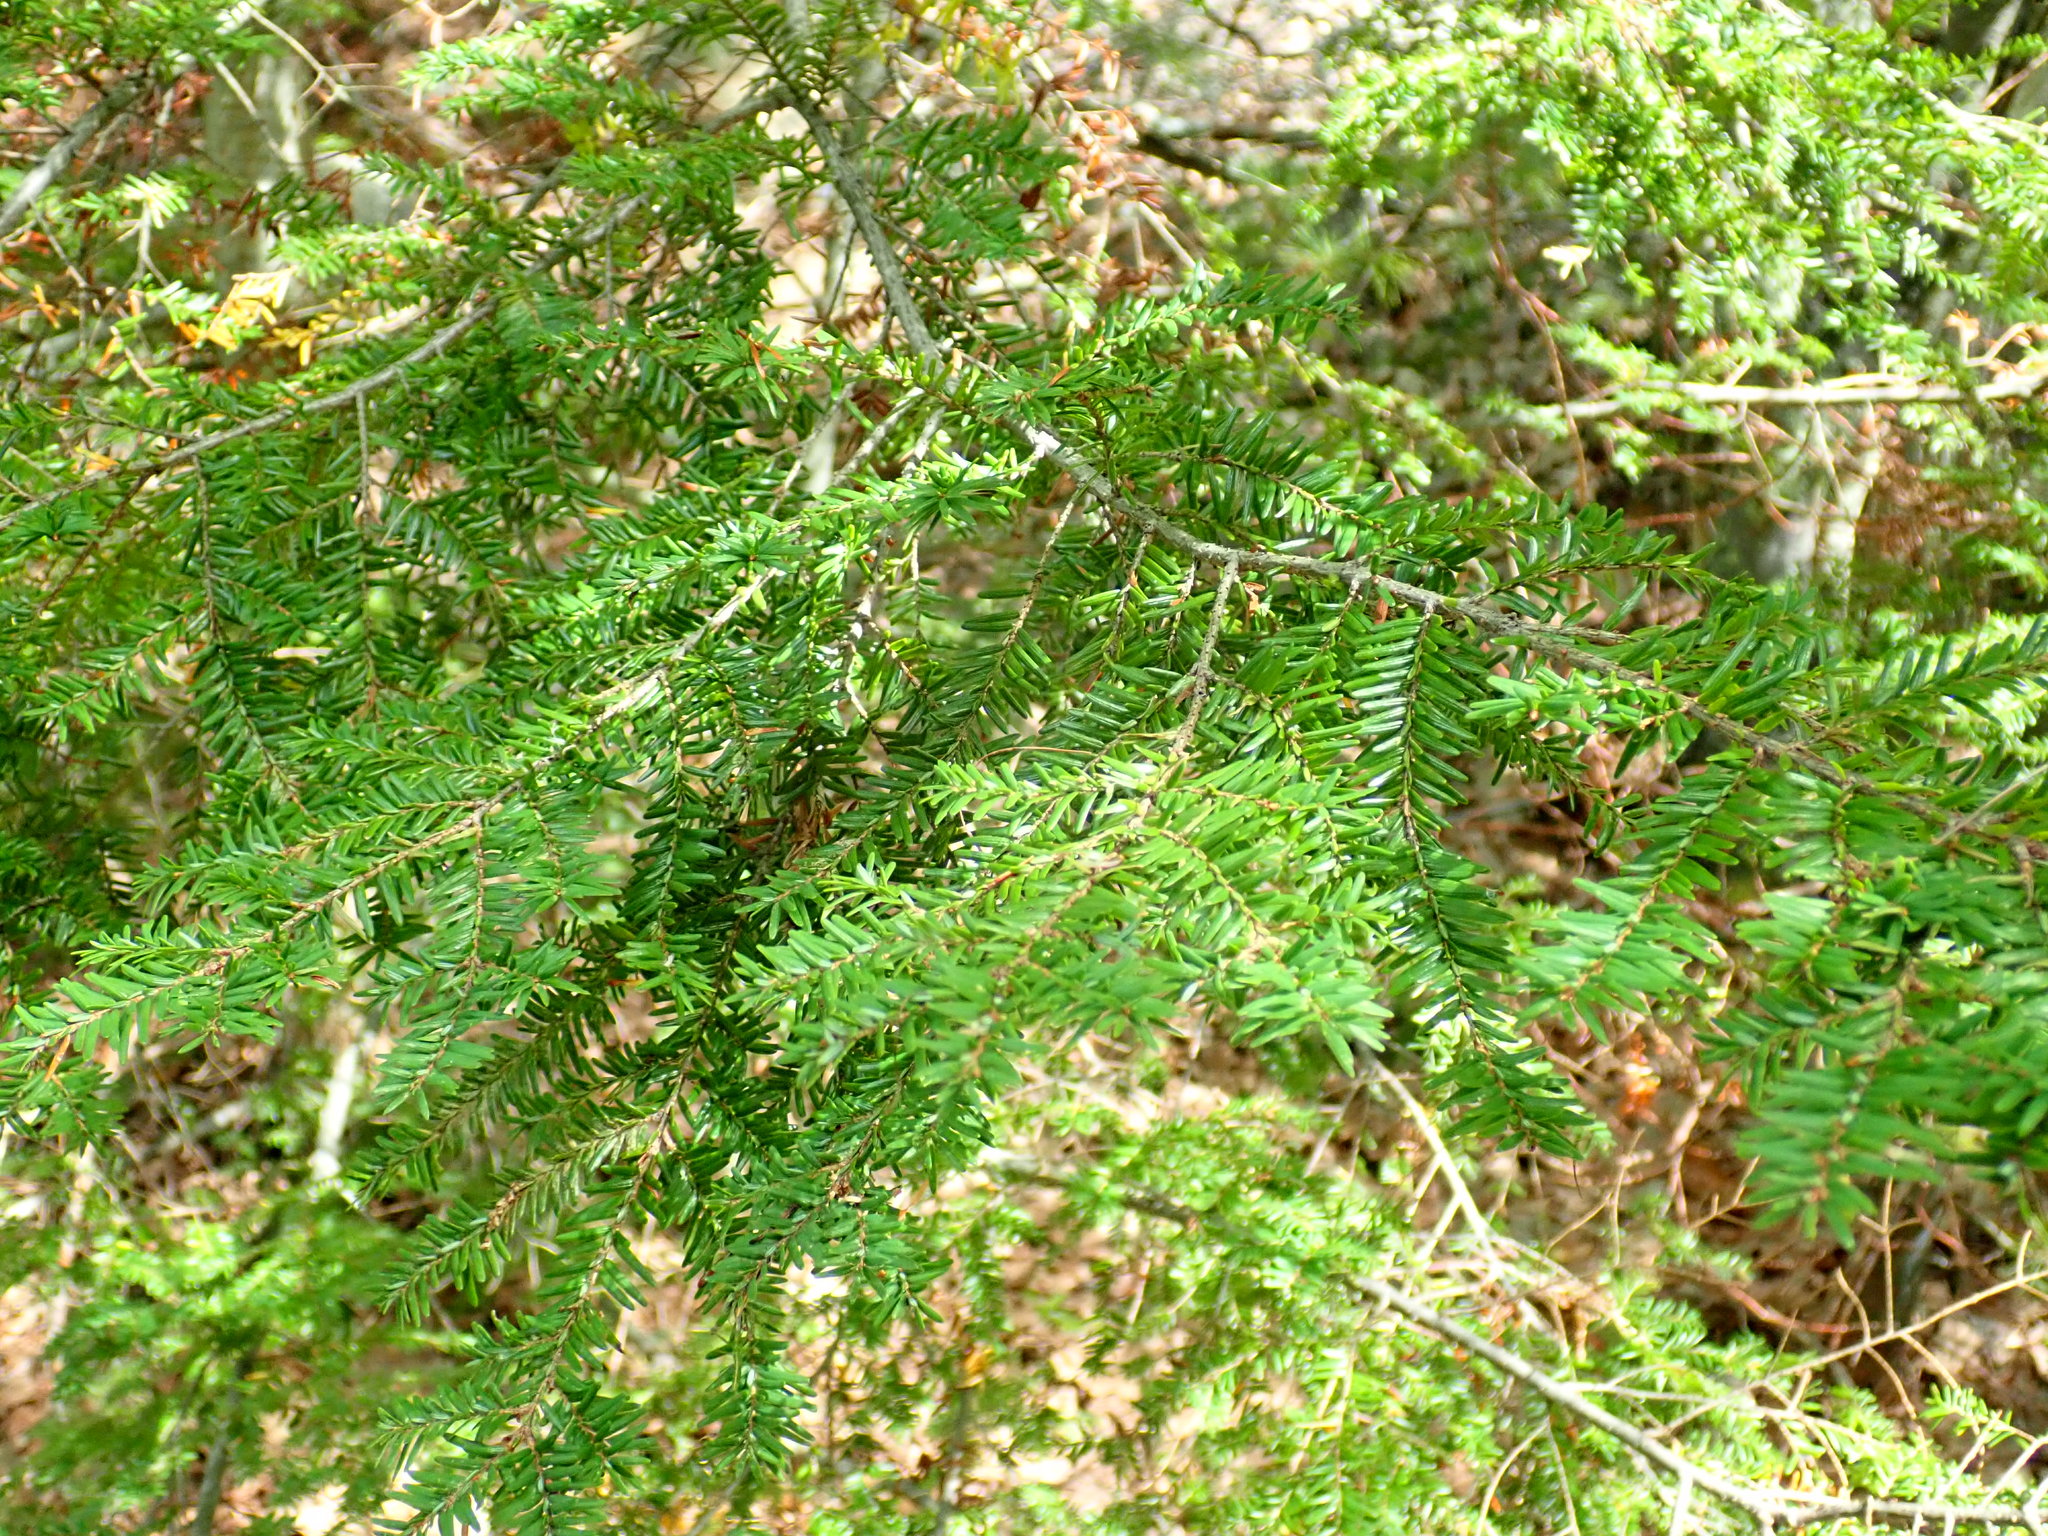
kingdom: Plantae
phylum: Tracheophyta
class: Pinopsida
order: Pinales
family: Pinaceae
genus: Tsuga
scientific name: Tsuga canadensis
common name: Eastern hemlock
